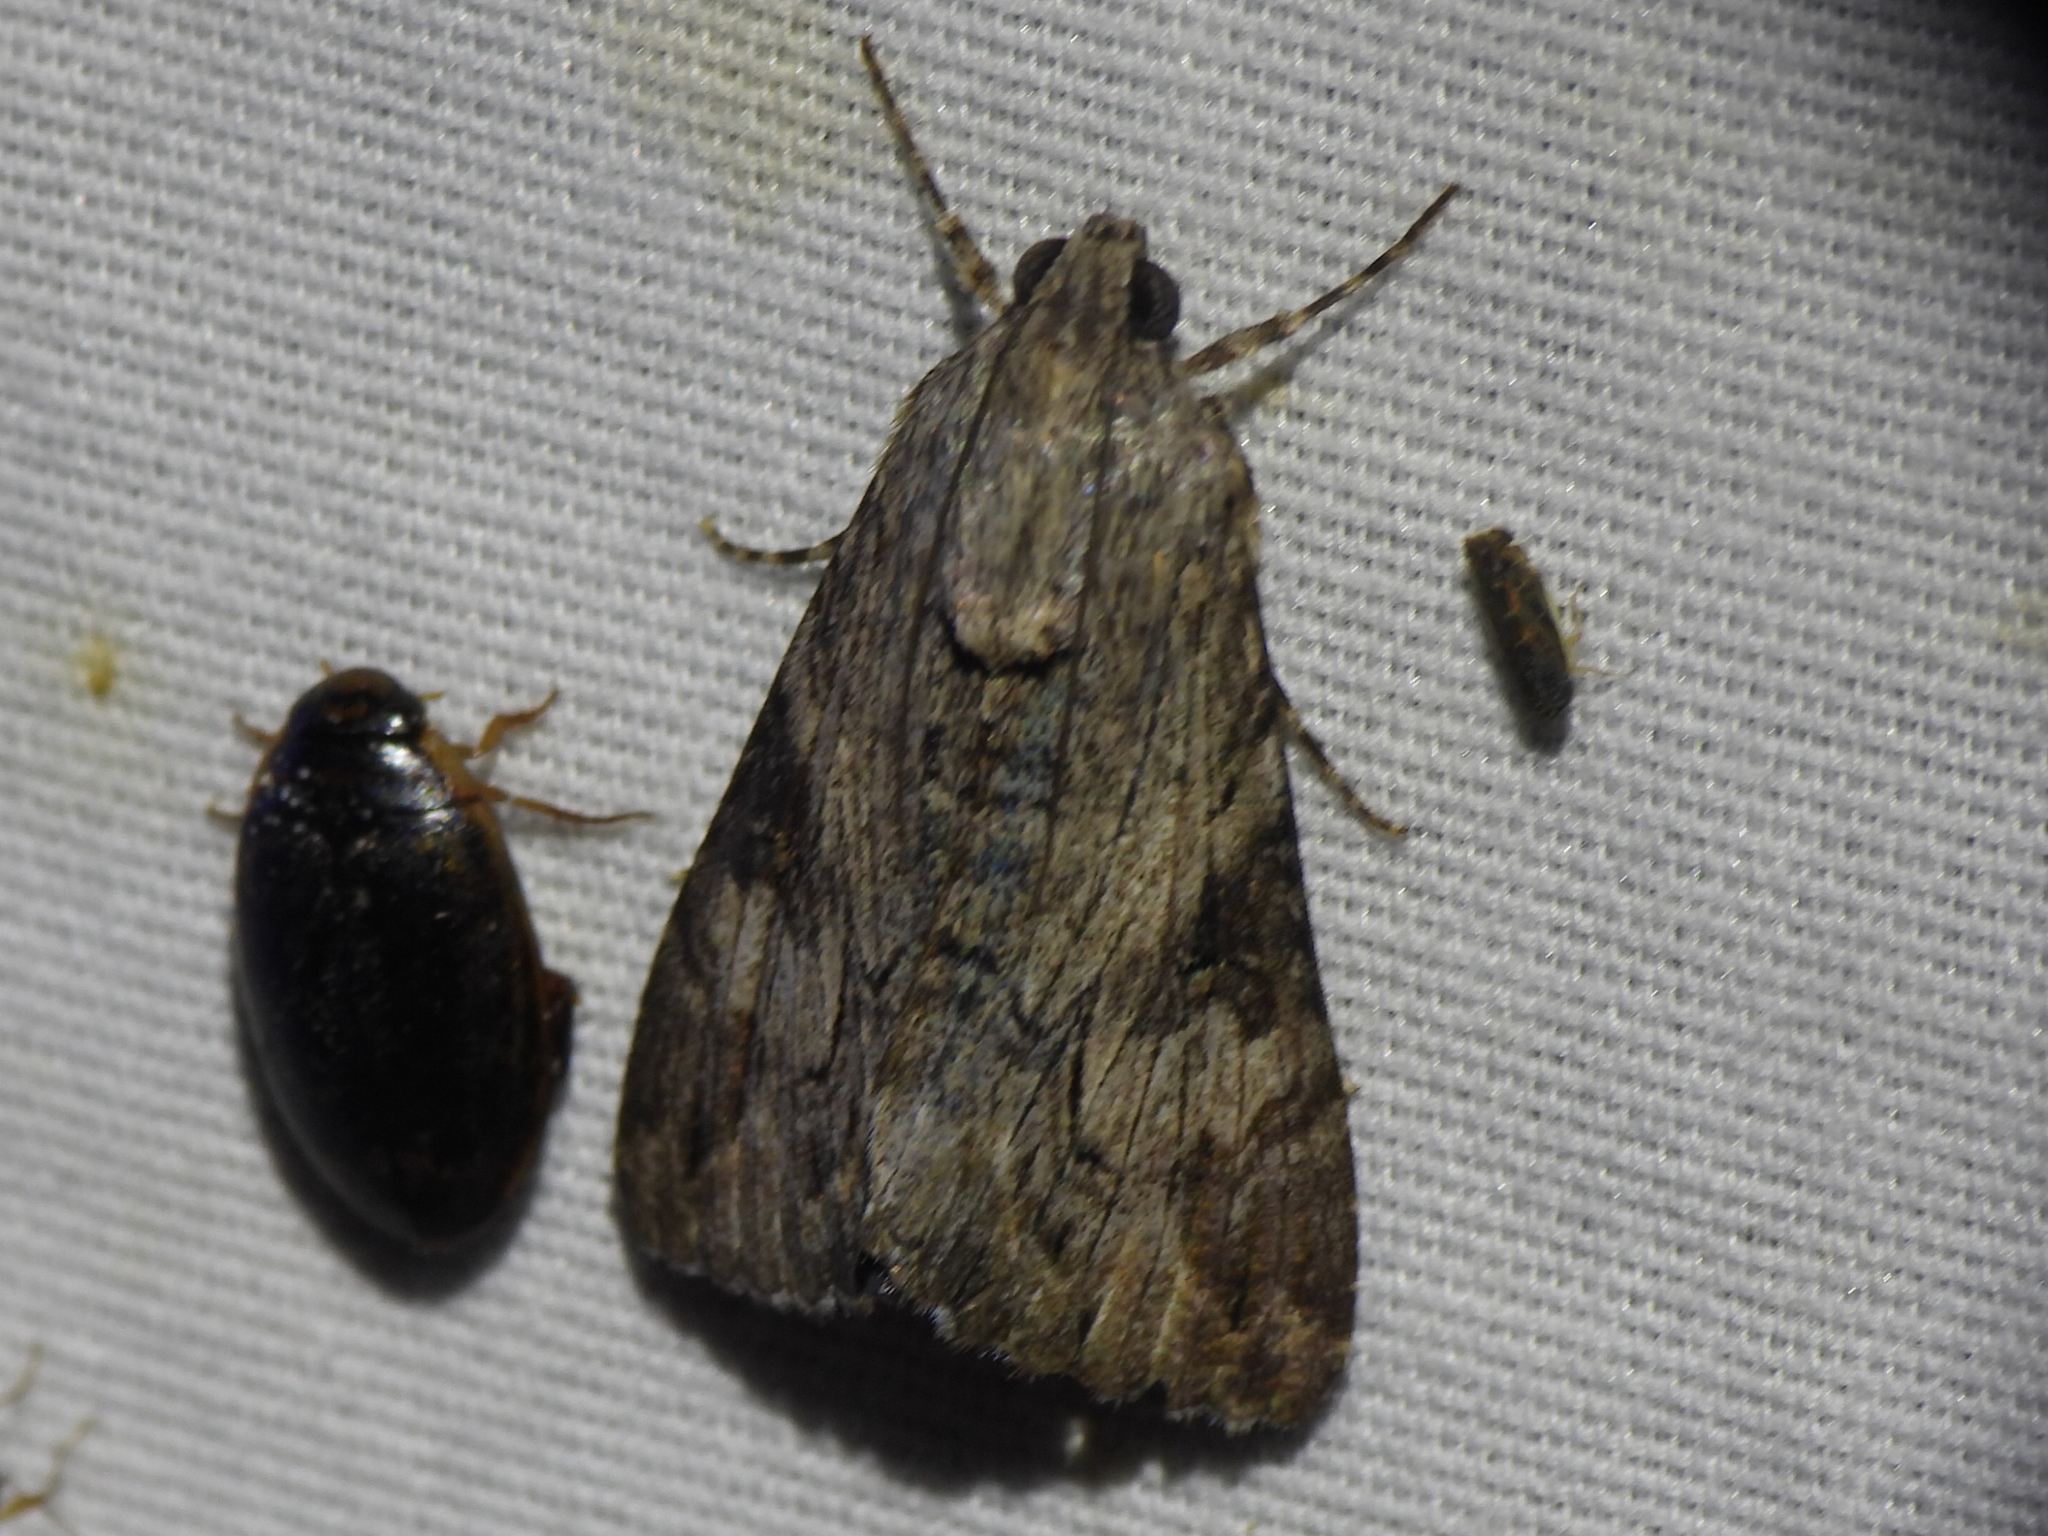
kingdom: Animalia
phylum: Arthropoda
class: Insecta
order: Lepidoptera
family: Erebidae
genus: Melipotis
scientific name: Melipotis jucunda
